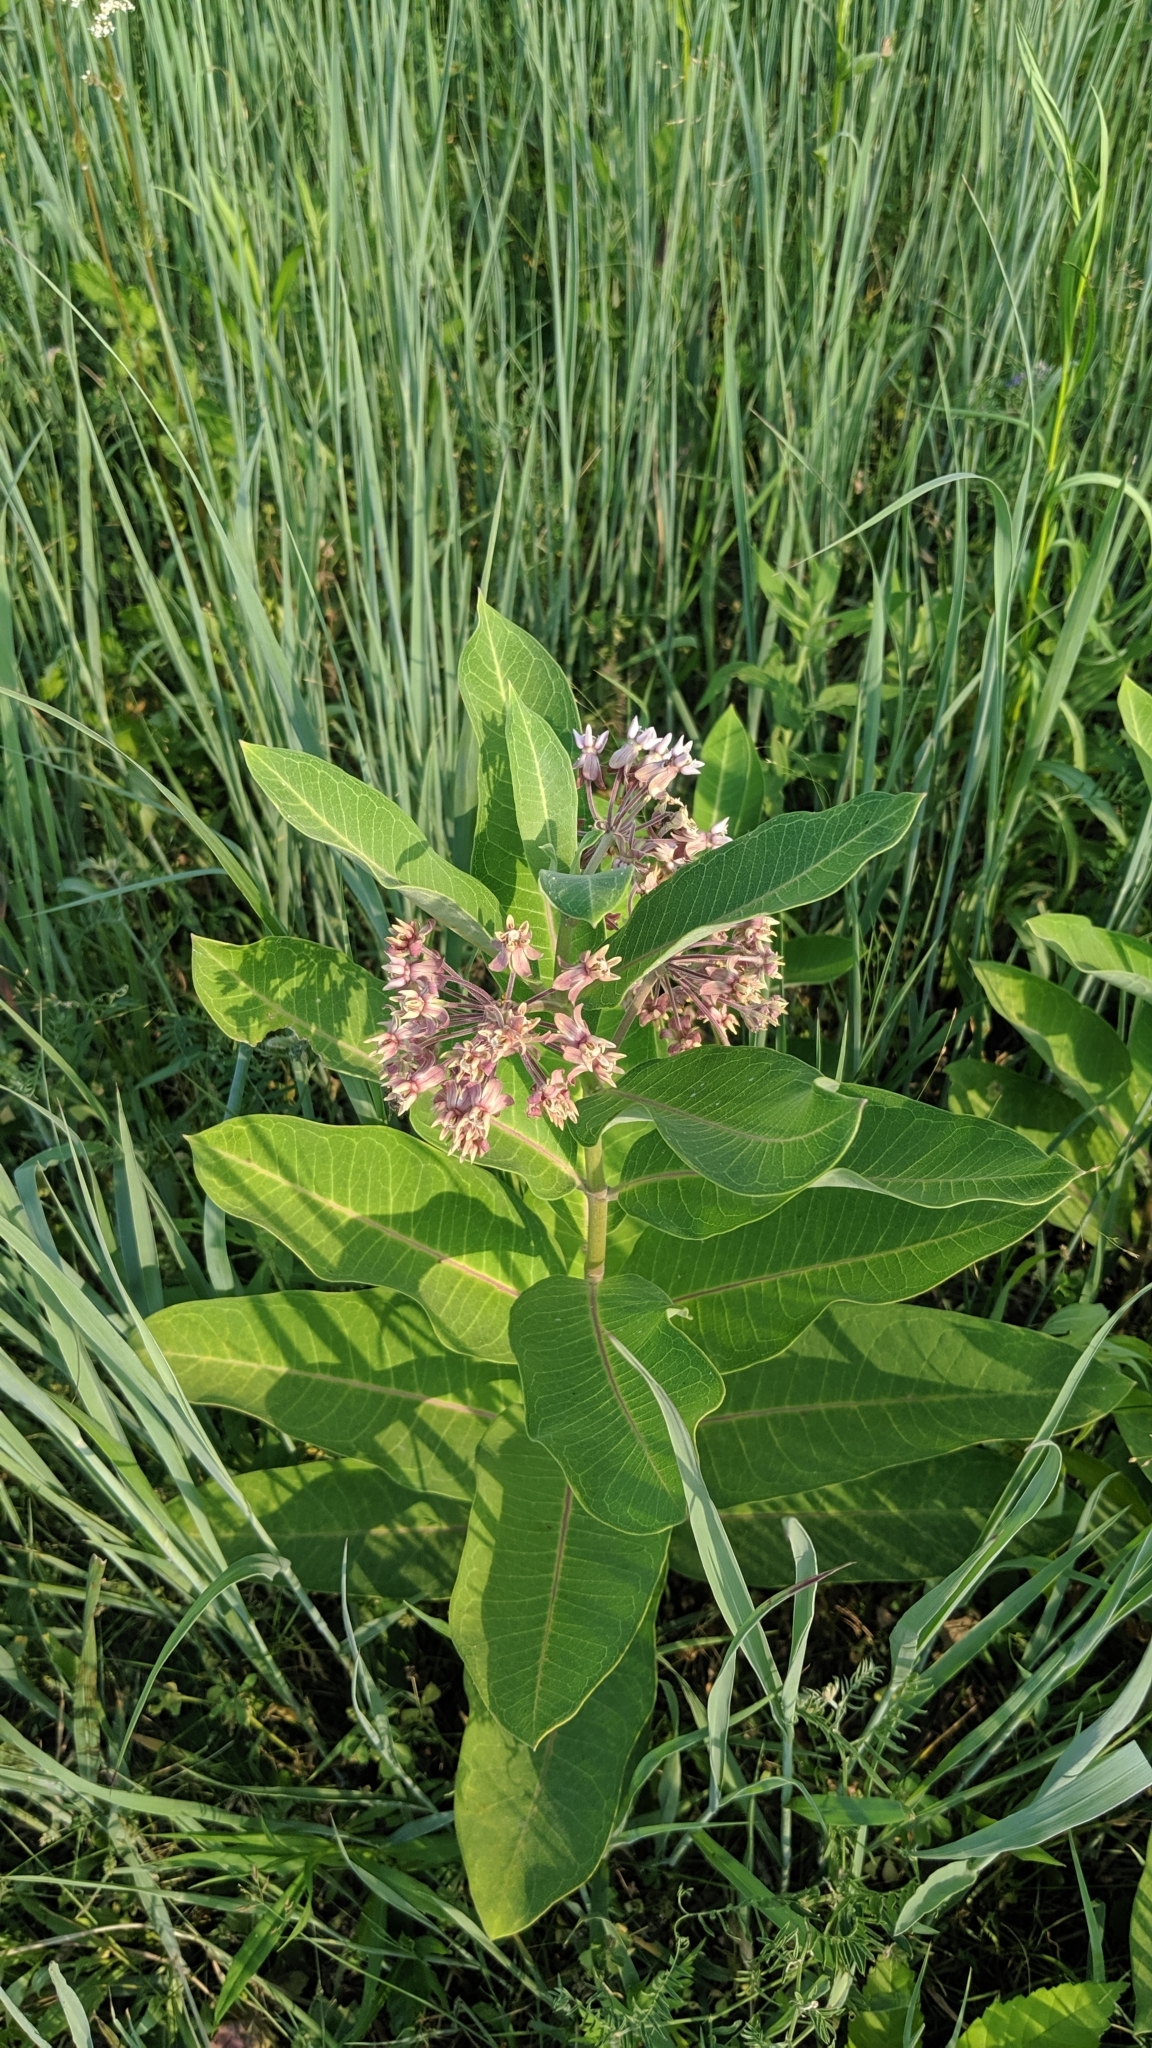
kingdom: Plantae
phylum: Tracheophyta
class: Magnoliopsida
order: Gentianales
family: Apocynaceae
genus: Asclepias
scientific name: Asclepias syriaca
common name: Common milkweed
